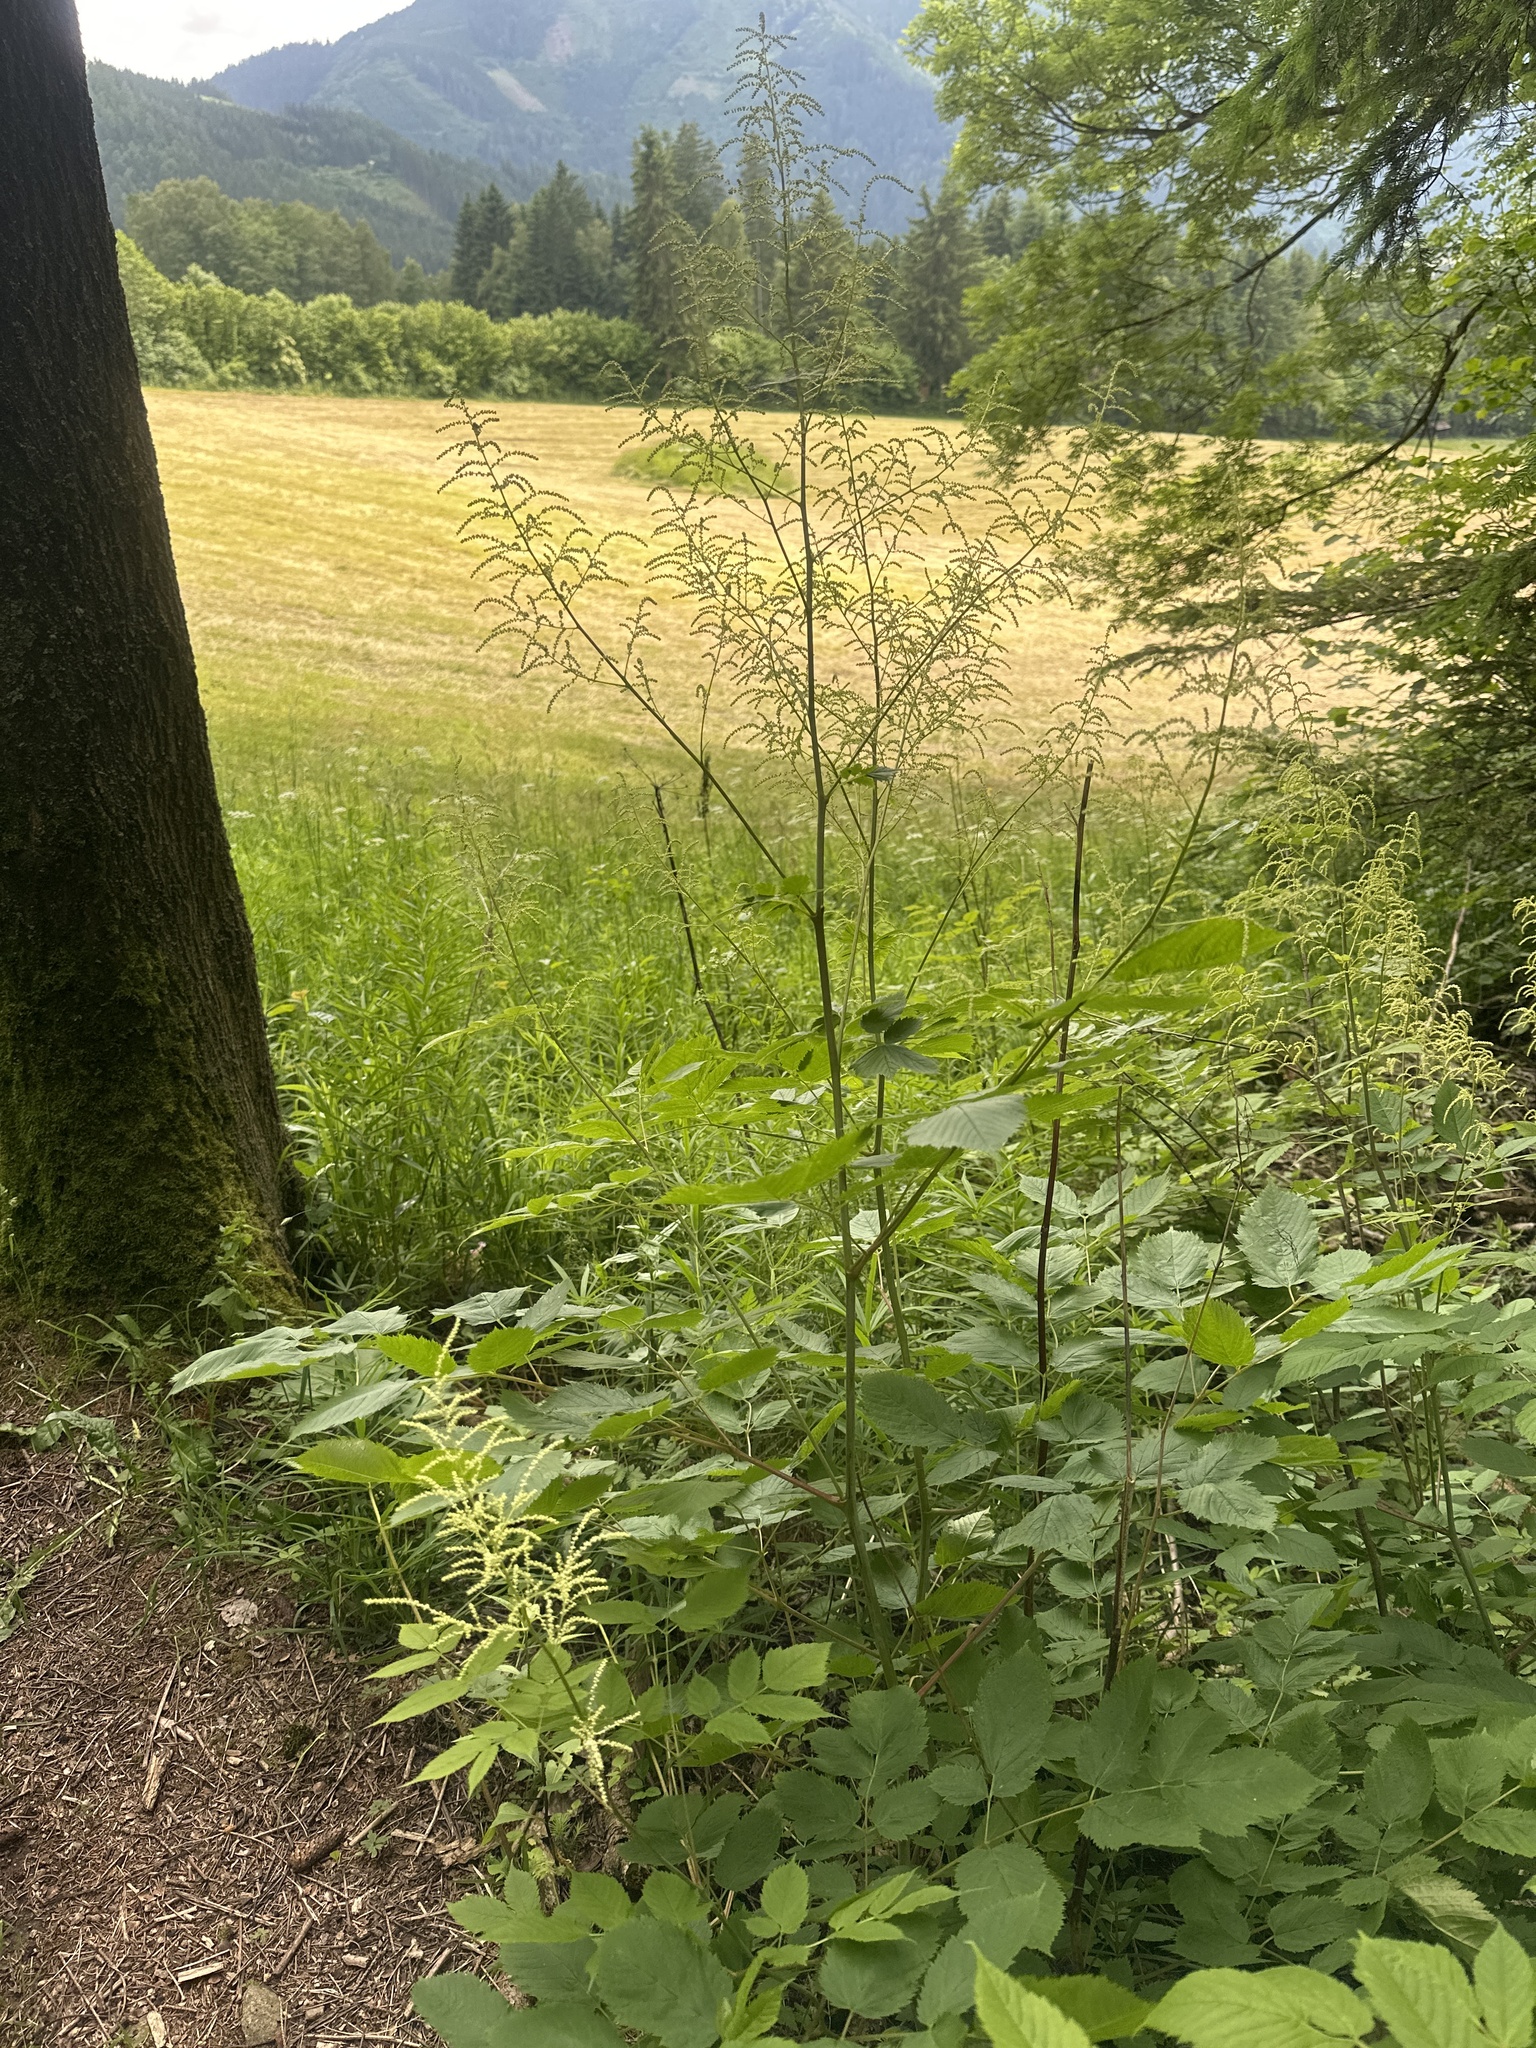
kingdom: Plantae
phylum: Tracheophyta
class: Magnoliopsida
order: Rosales
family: Rosaceae
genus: Aruncus
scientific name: Aruncus dioicus
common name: Buck's-beard
